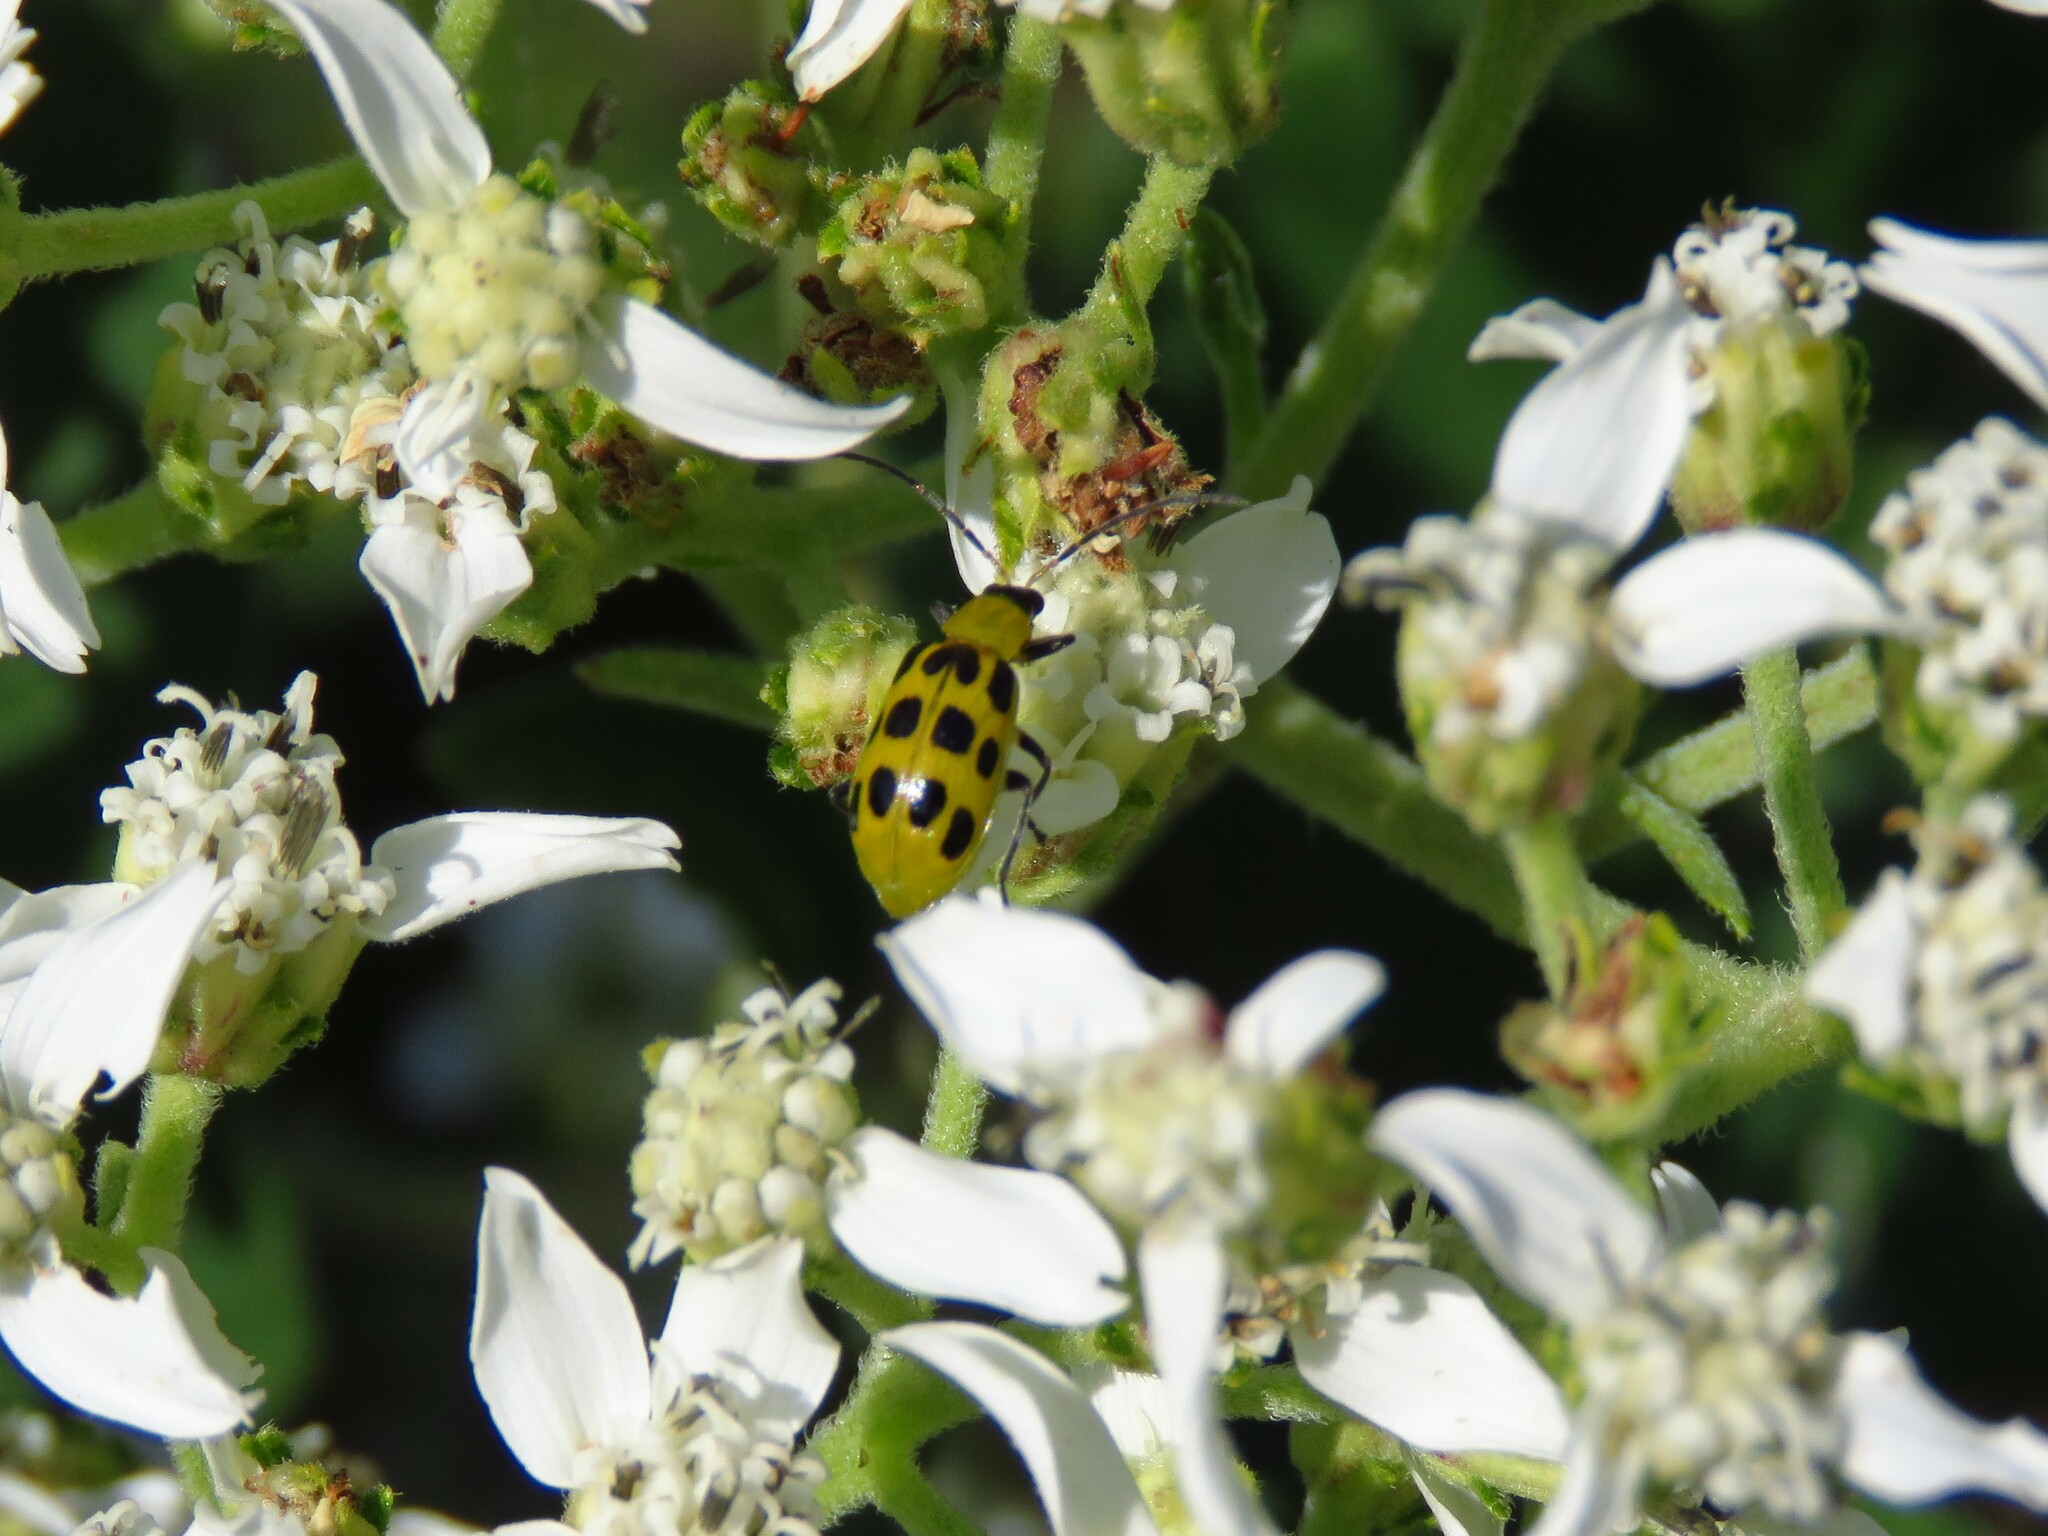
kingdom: Animalia
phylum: Arthropoda
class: Insecta
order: Coleoptera
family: Chrysomelidae
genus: Diabrotica
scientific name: Diabrotica undecimpunctata
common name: Spotted cucumber beetle
